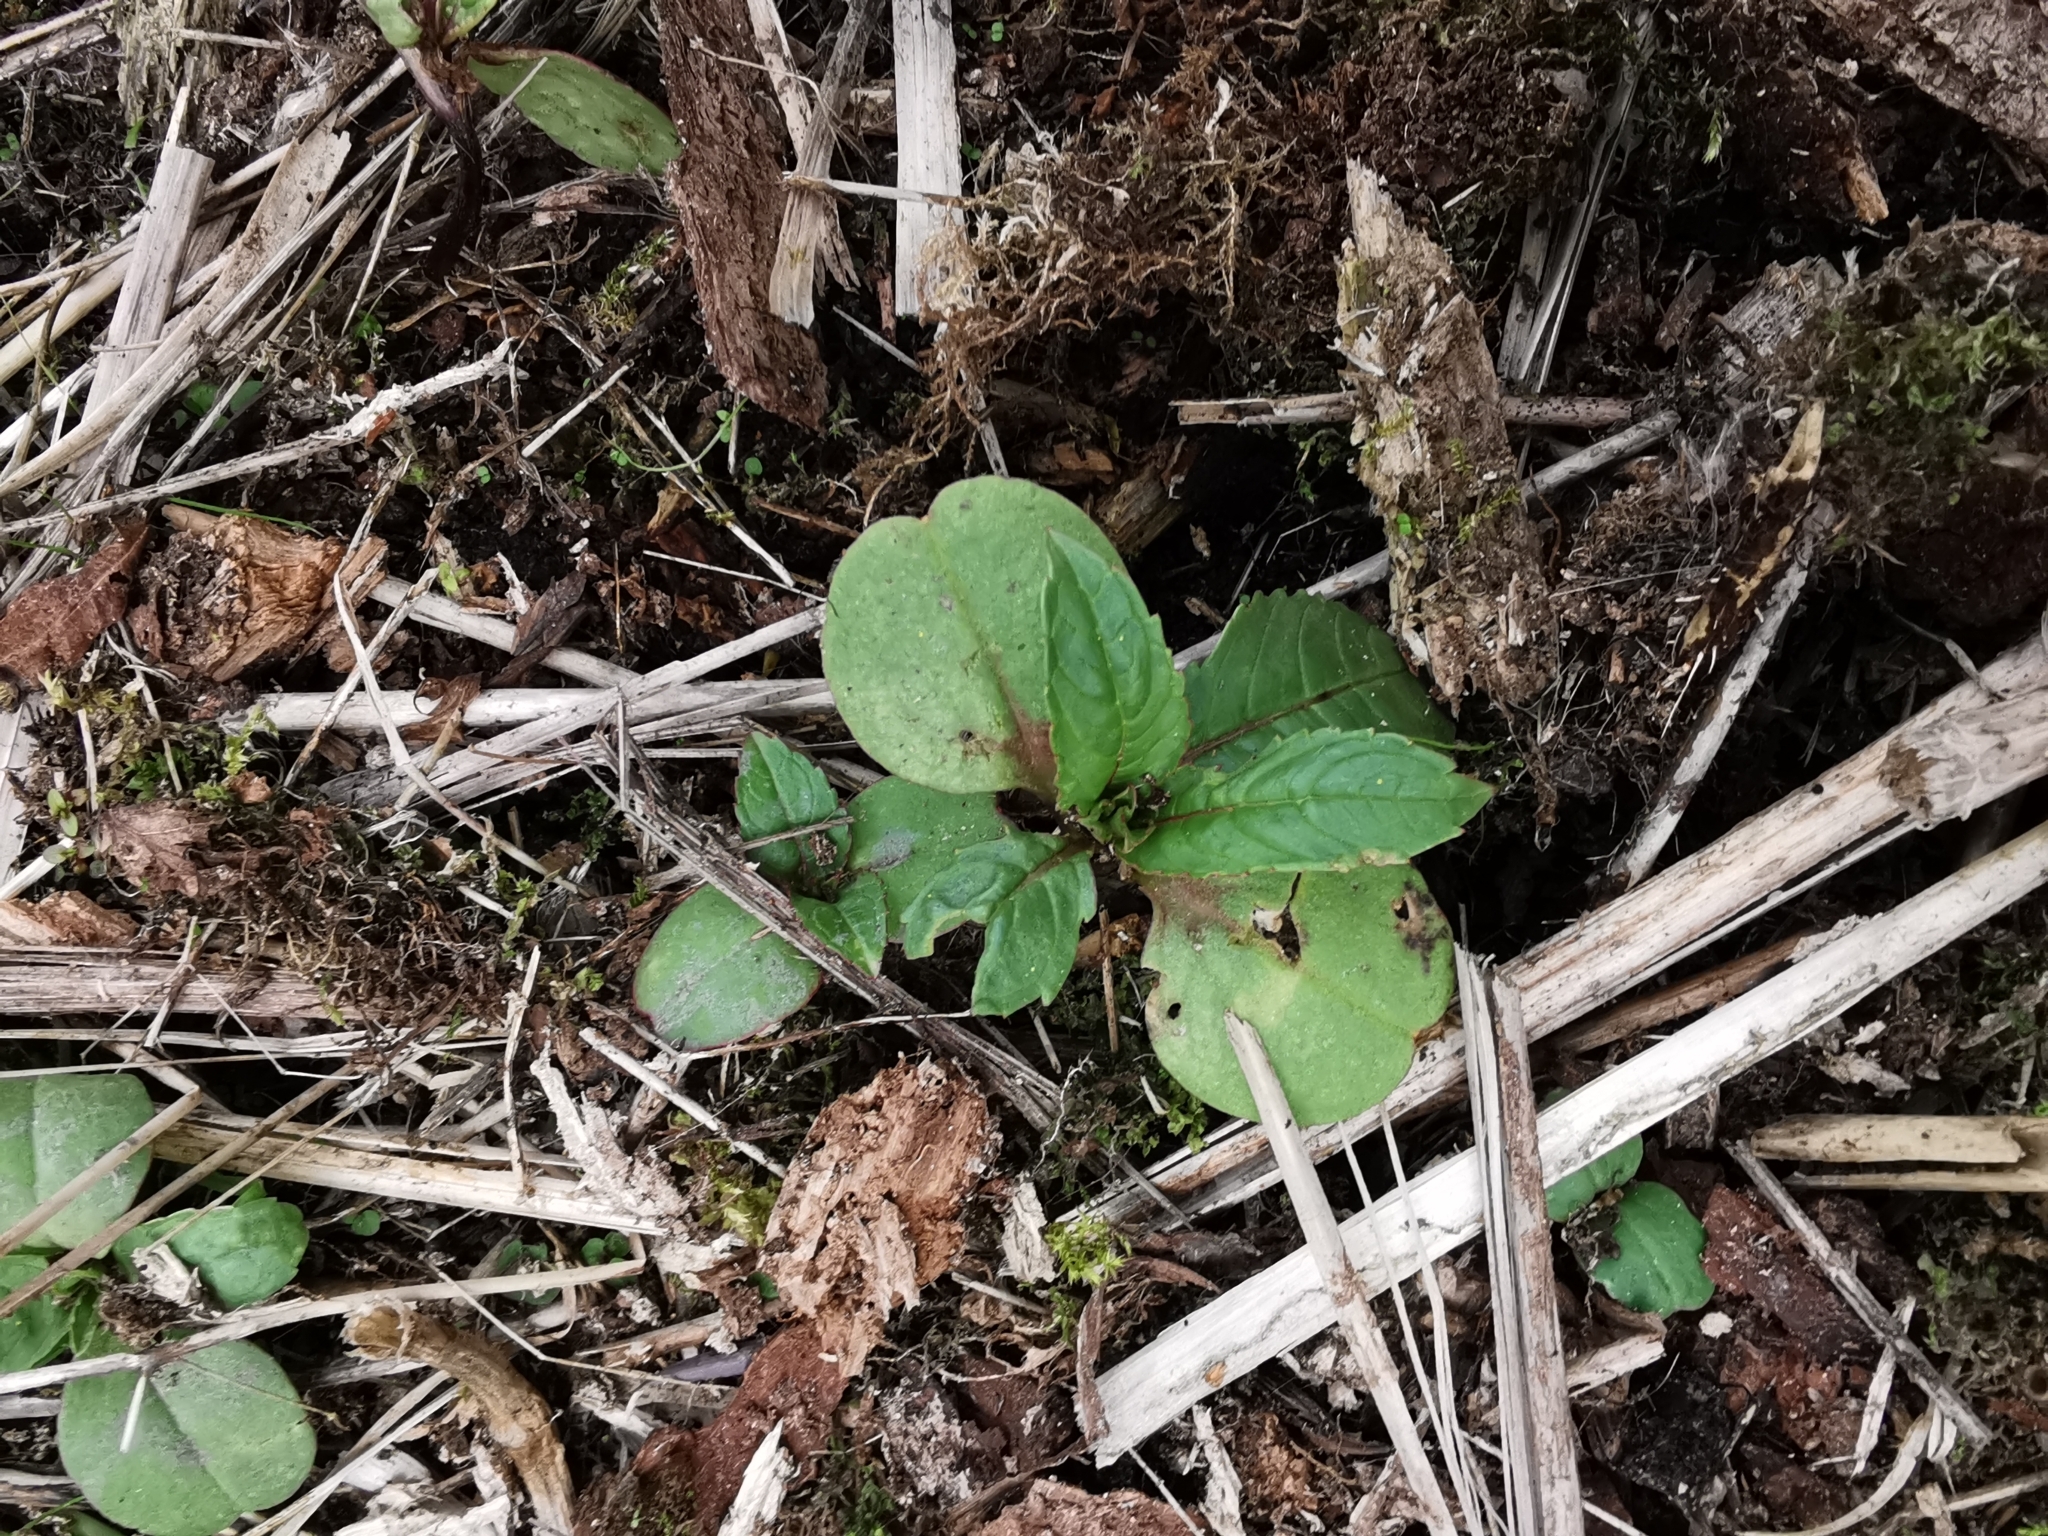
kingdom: Plantae
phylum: Tracheophyta
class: Magnoliopsida
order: Ericales
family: Balsaminaceae
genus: Impatiens
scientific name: Impatiens glandulifera
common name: Himalayan balsam
